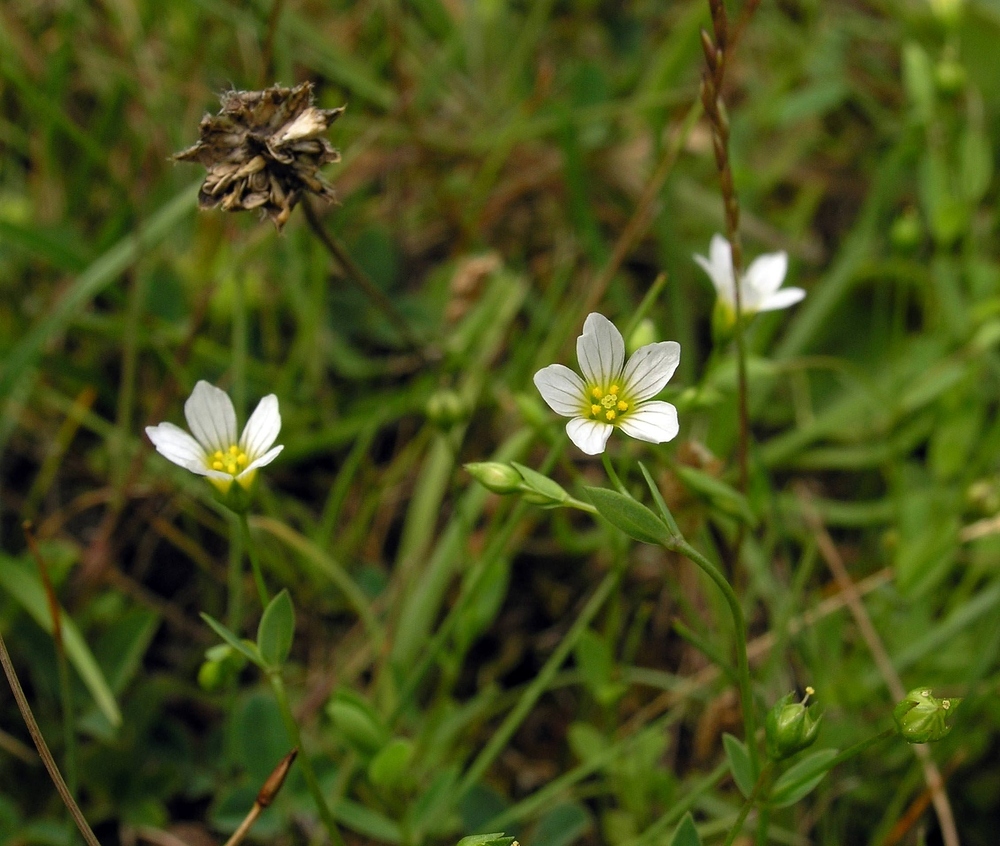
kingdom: Plantae
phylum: Tracheophyta
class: Magnoliopsida
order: Malpighiales
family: Linaceae
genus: Linum
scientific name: Linum catharticum
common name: Fairy flax
